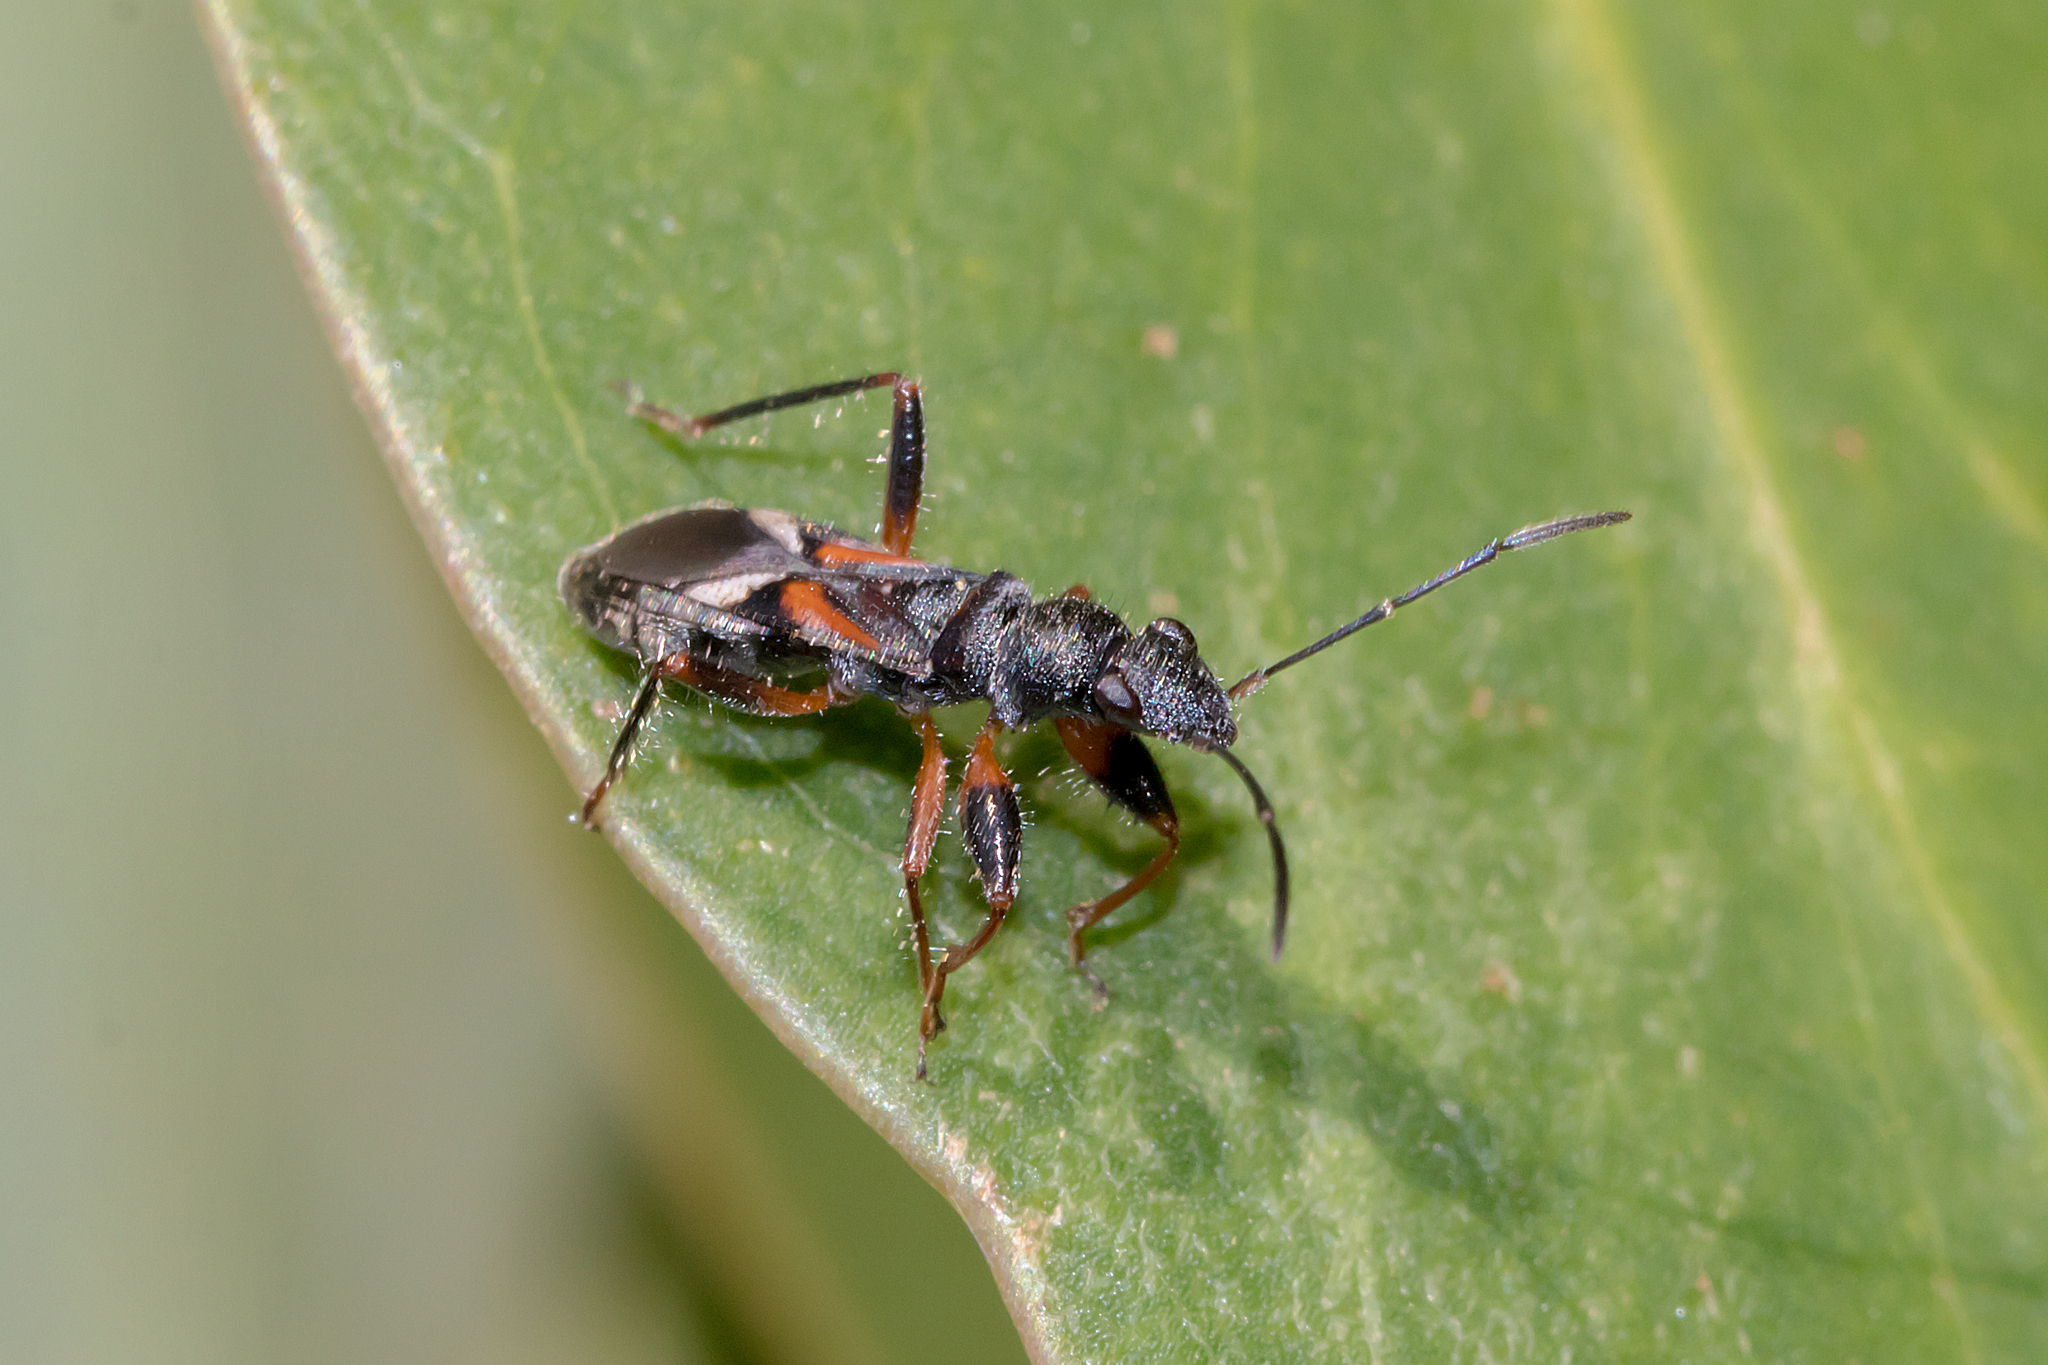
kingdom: Animalia
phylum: Arthropoda
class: Insecta
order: Hemiptera
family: Rhyparochromidae
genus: Daerlac
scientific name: Daerlac cephalotes
